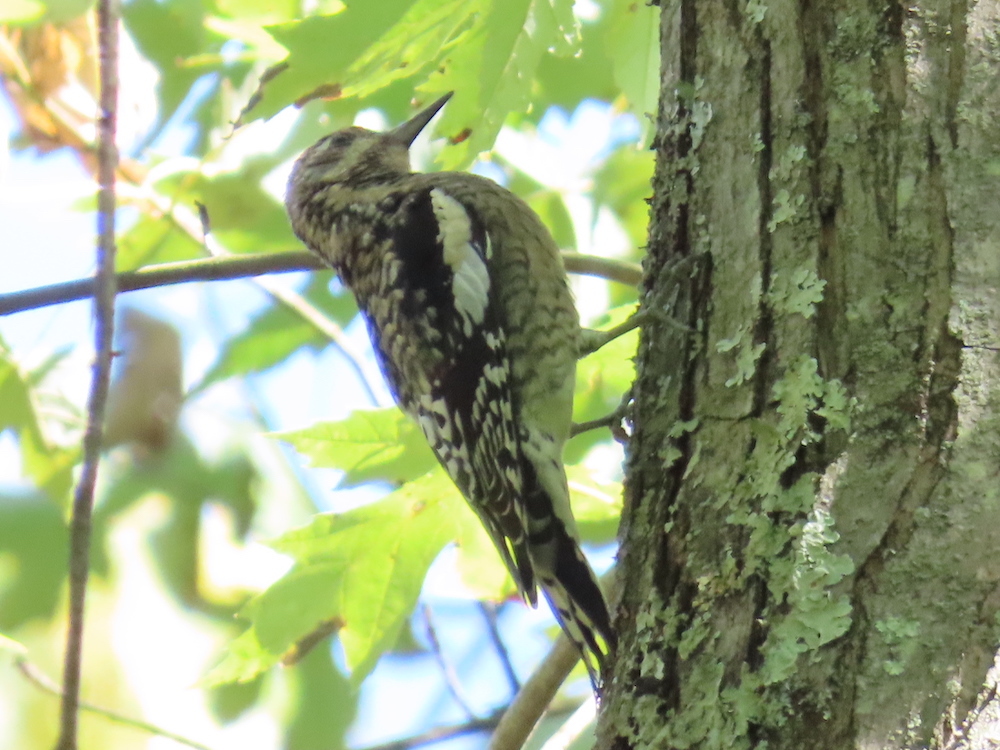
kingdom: Animalia
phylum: Chordata
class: Aves
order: Piciformes
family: Picidae
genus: Sphyrapicus
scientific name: Sphyrapicus varius
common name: Yellow-bellied sapsucker
